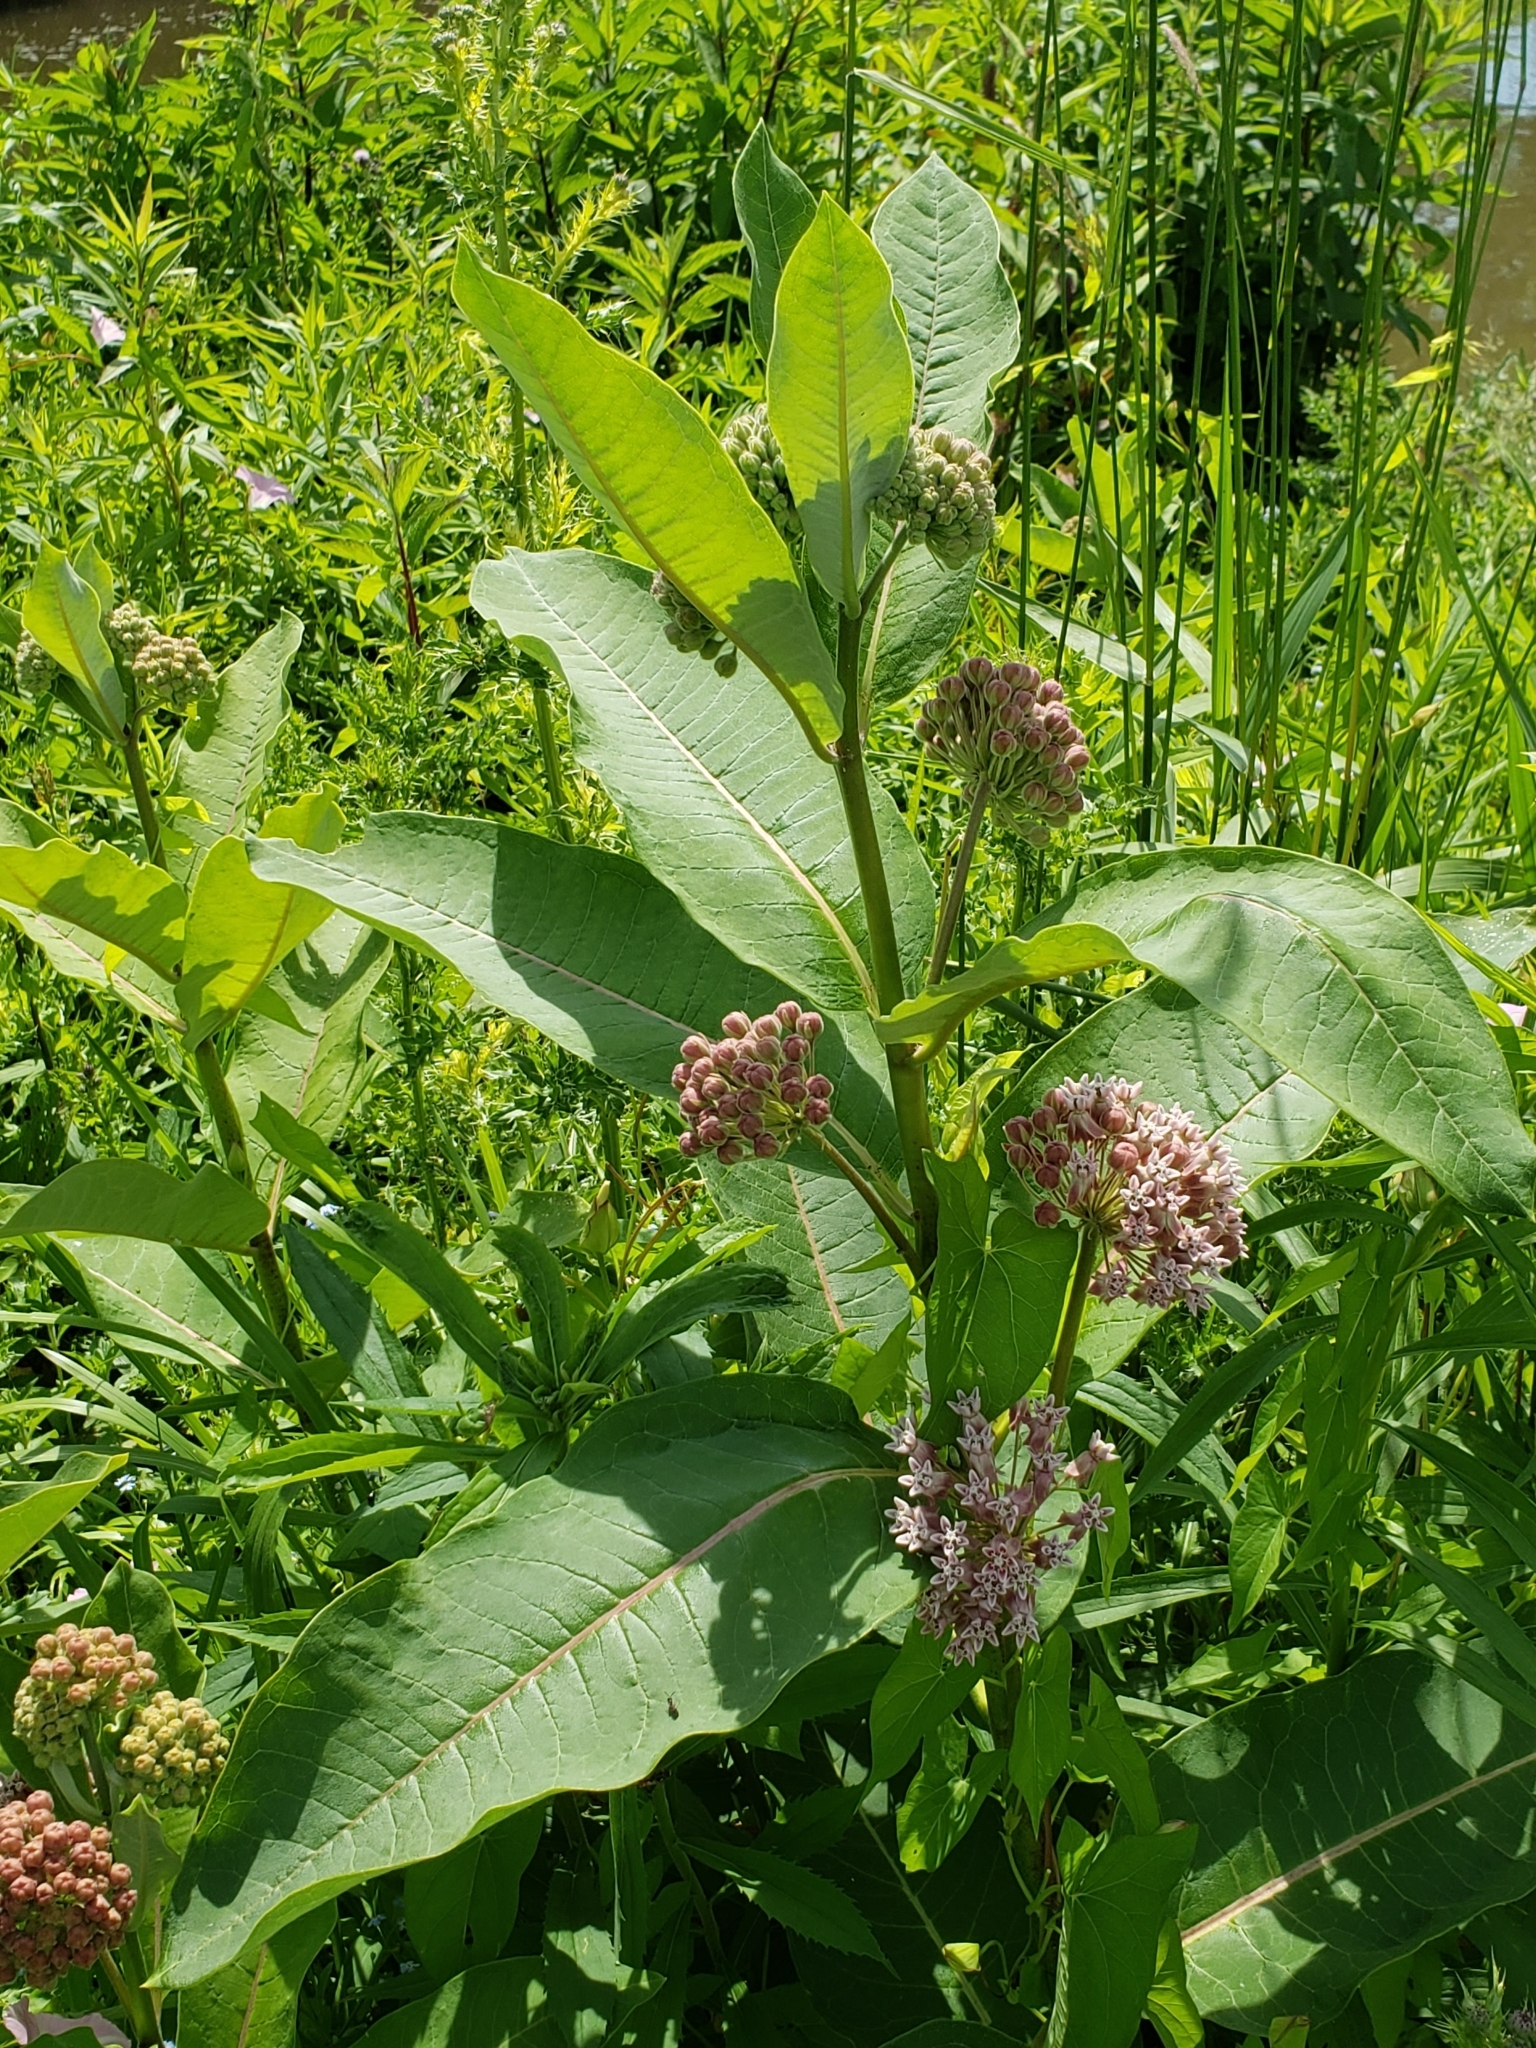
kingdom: Plantae
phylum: Tracheophyta
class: Magnoliopsida
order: Gentianales
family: Apocynaceae
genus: Asclepias
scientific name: Asclepias syriaca
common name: Common milkweed
